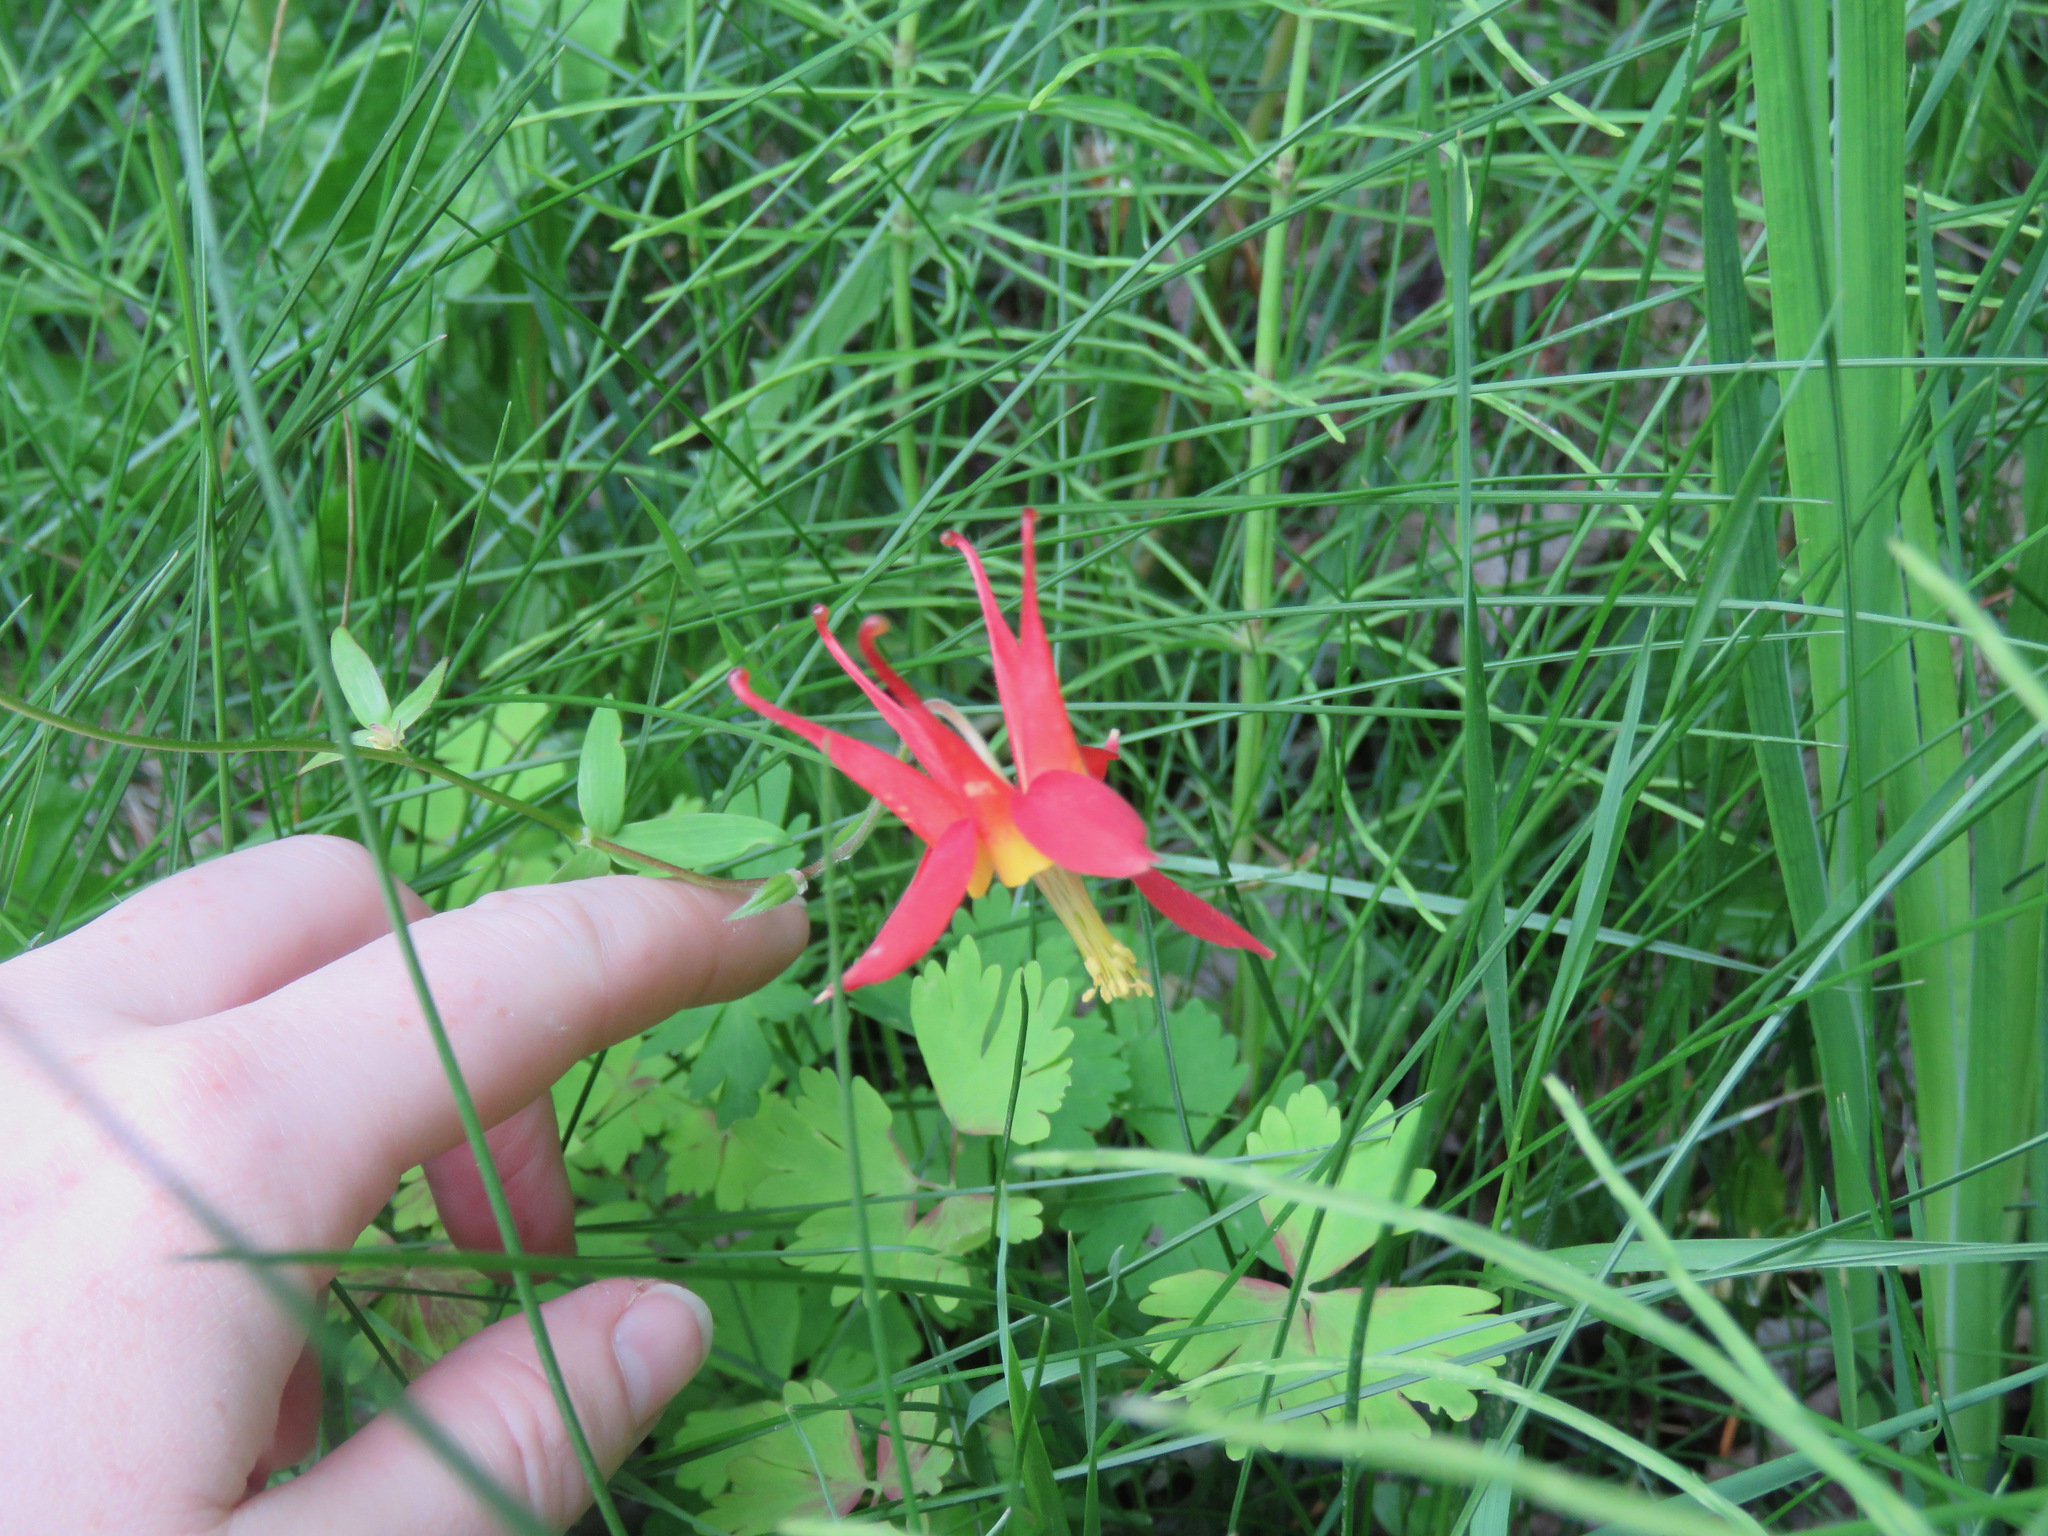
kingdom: Plantae
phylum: Tracheophyta
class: Magnoliopsida
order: Ranunculales
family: Ranunculaceae
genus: Aquilegia
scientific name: Aquilegia formosa
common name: Sitka columbine
